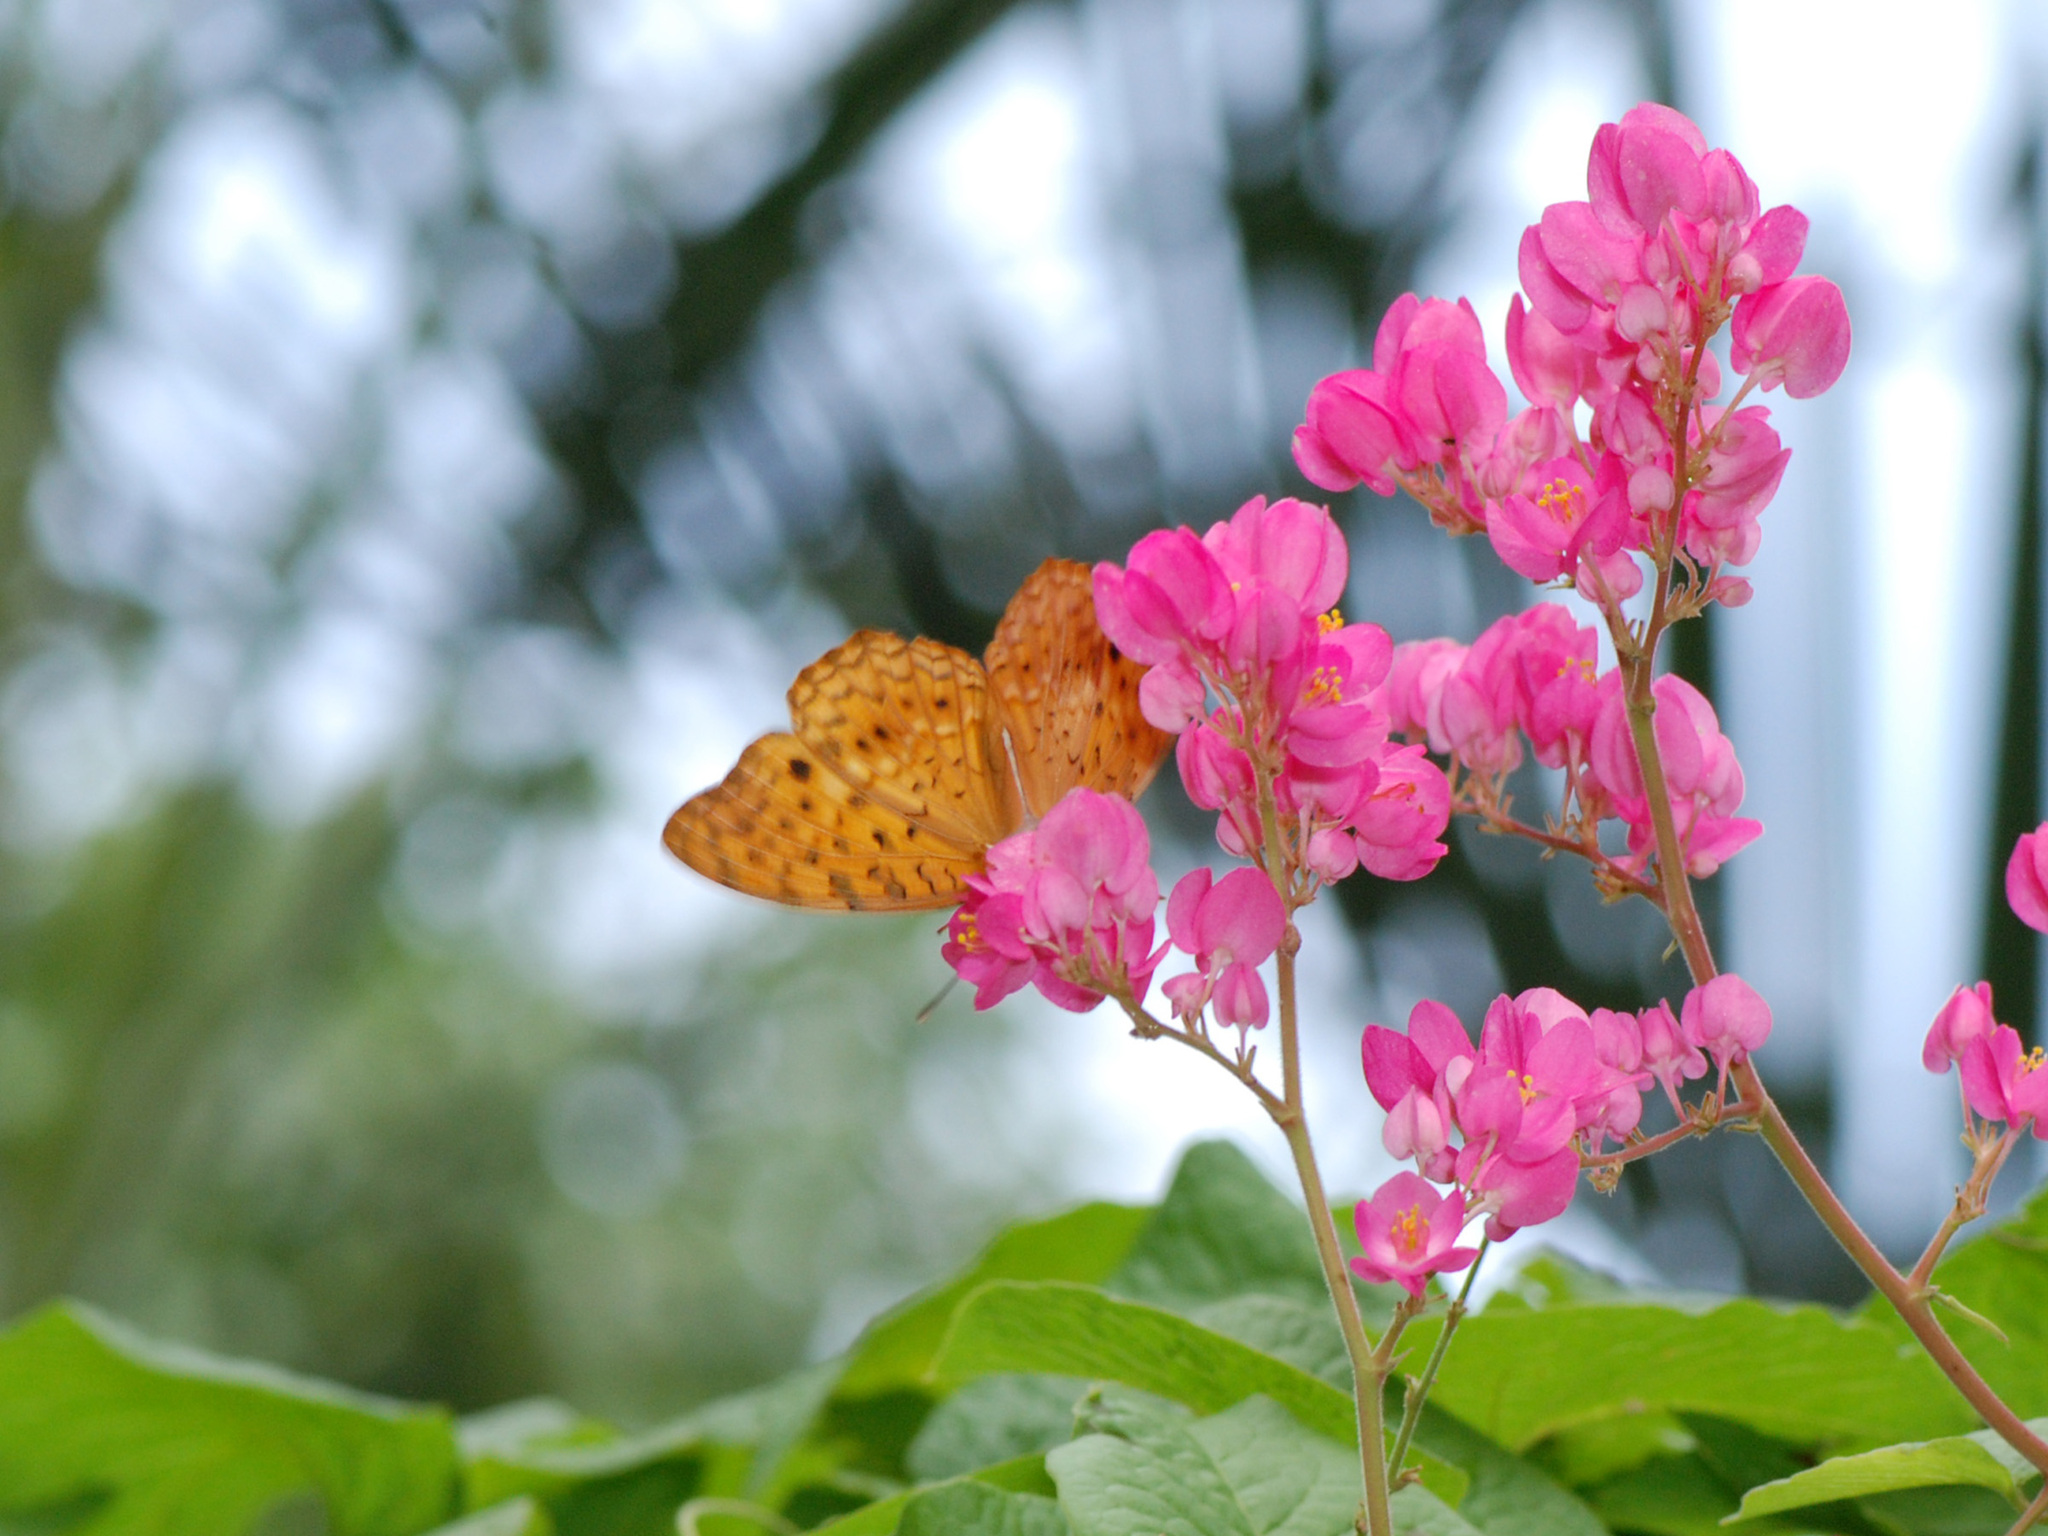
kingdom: Animalia
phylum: Arthropoda
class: Insecta
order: Lepidoptera
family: Nymphalidae
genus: Phalanta
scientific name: Phalanta phalantha
